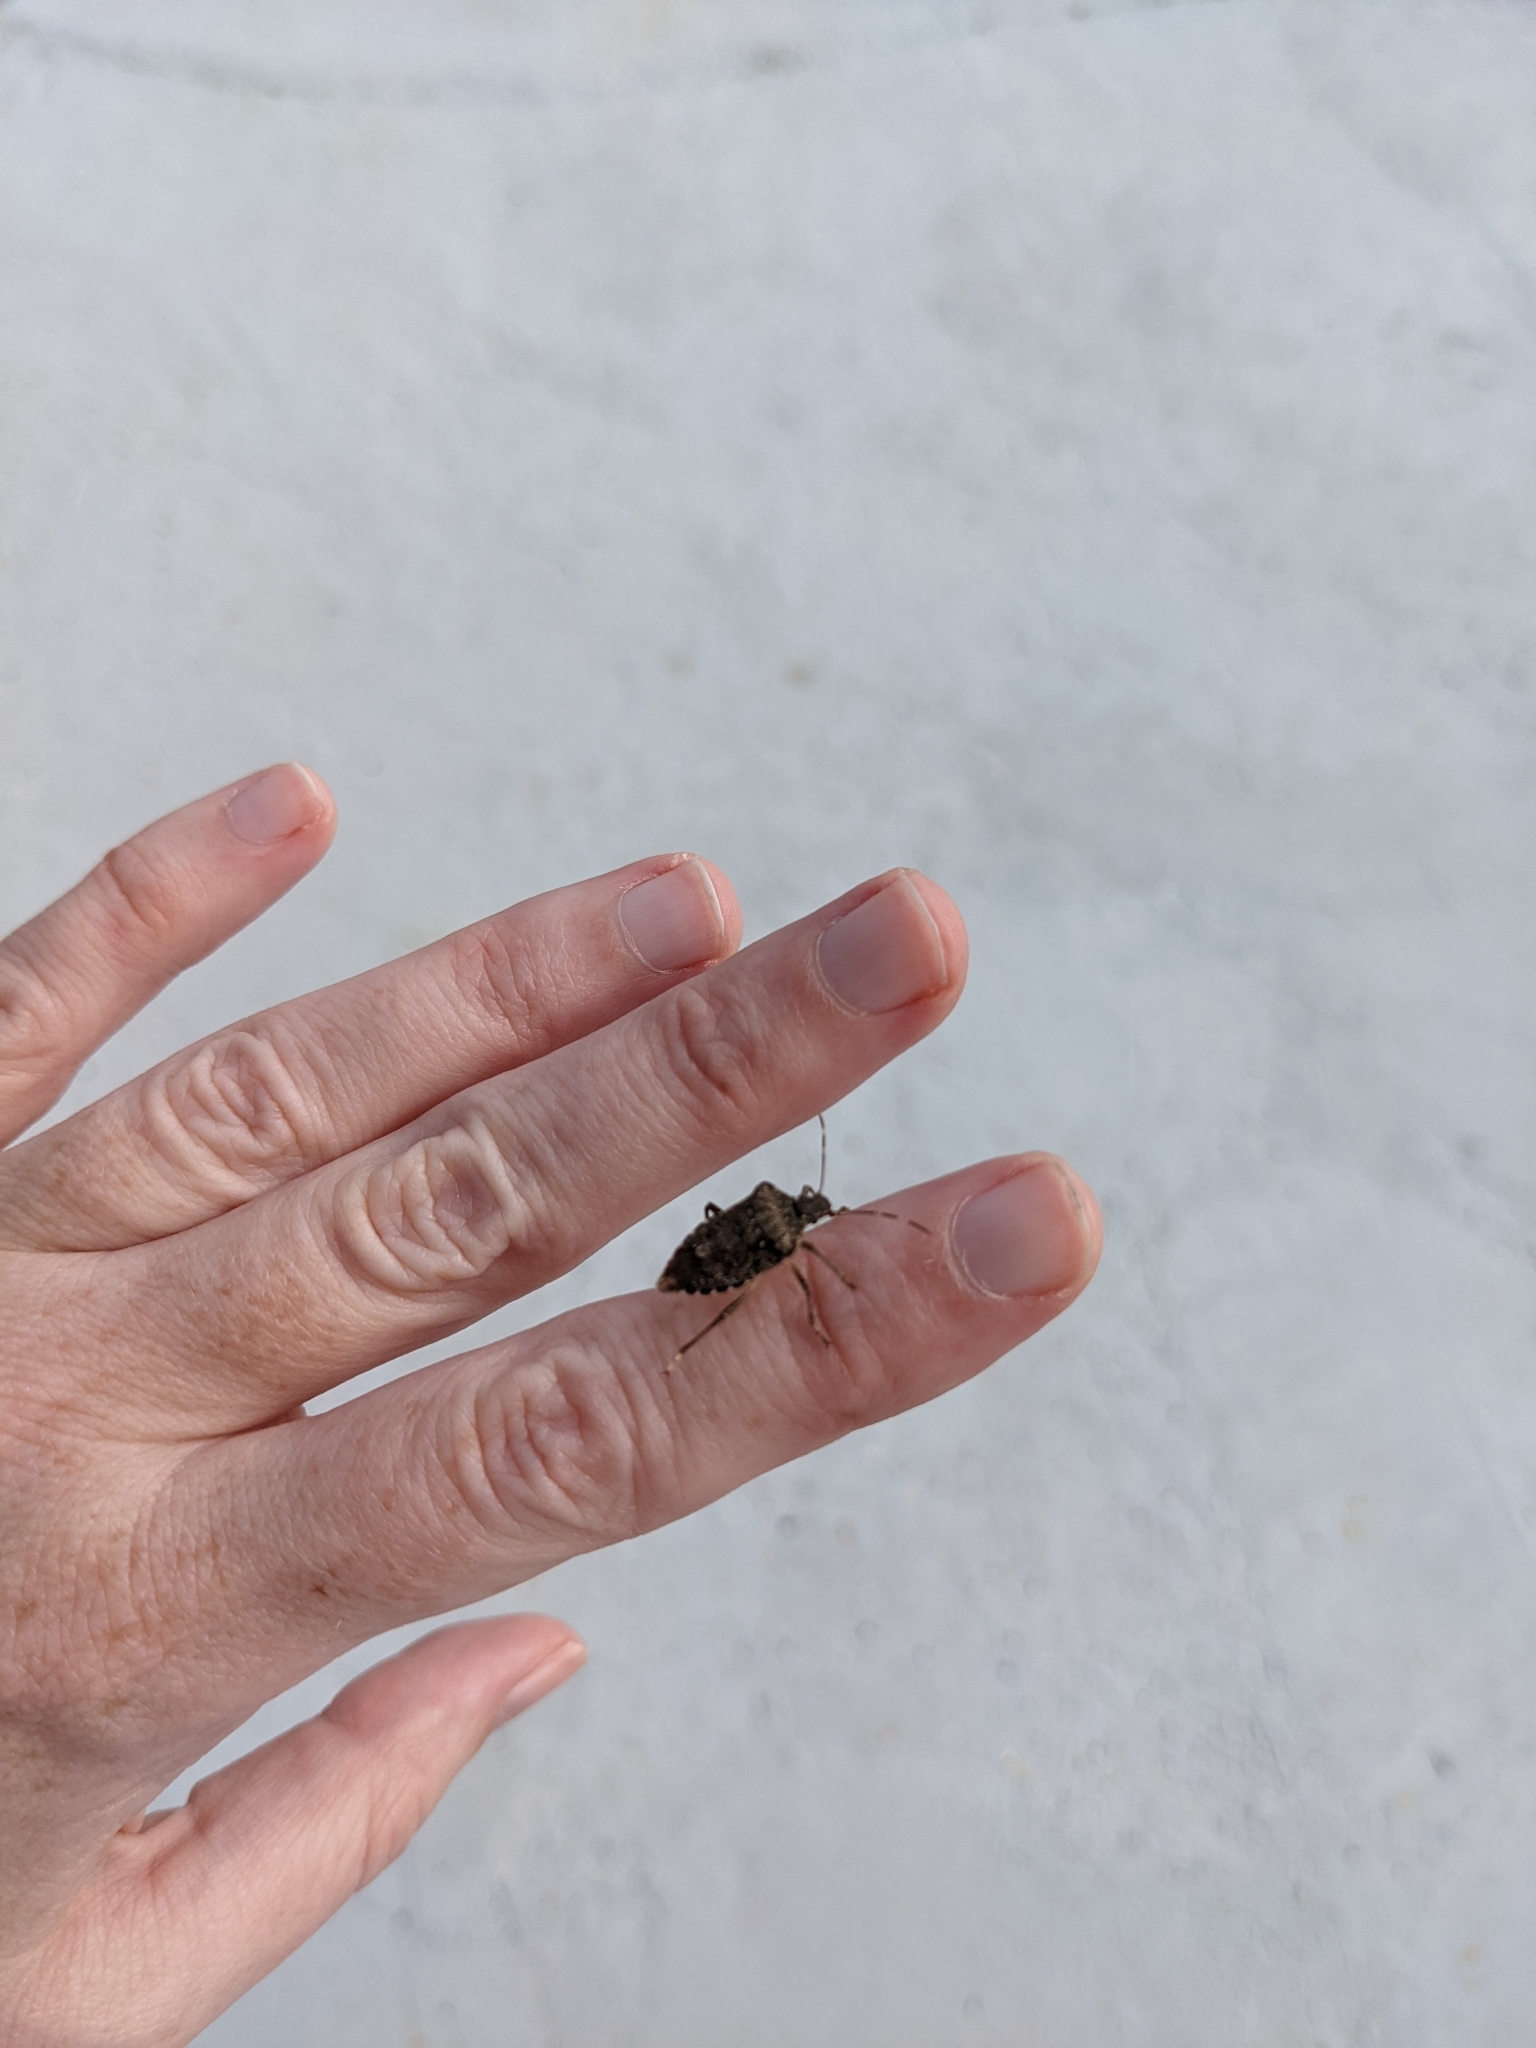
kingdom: Animalia
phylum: Arthropoda
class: Insecta
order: Hemiptera
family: Pentatomidae
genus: Halyomorpha
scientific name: Halyomorpha halys
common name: Brown marmorated stink bug
